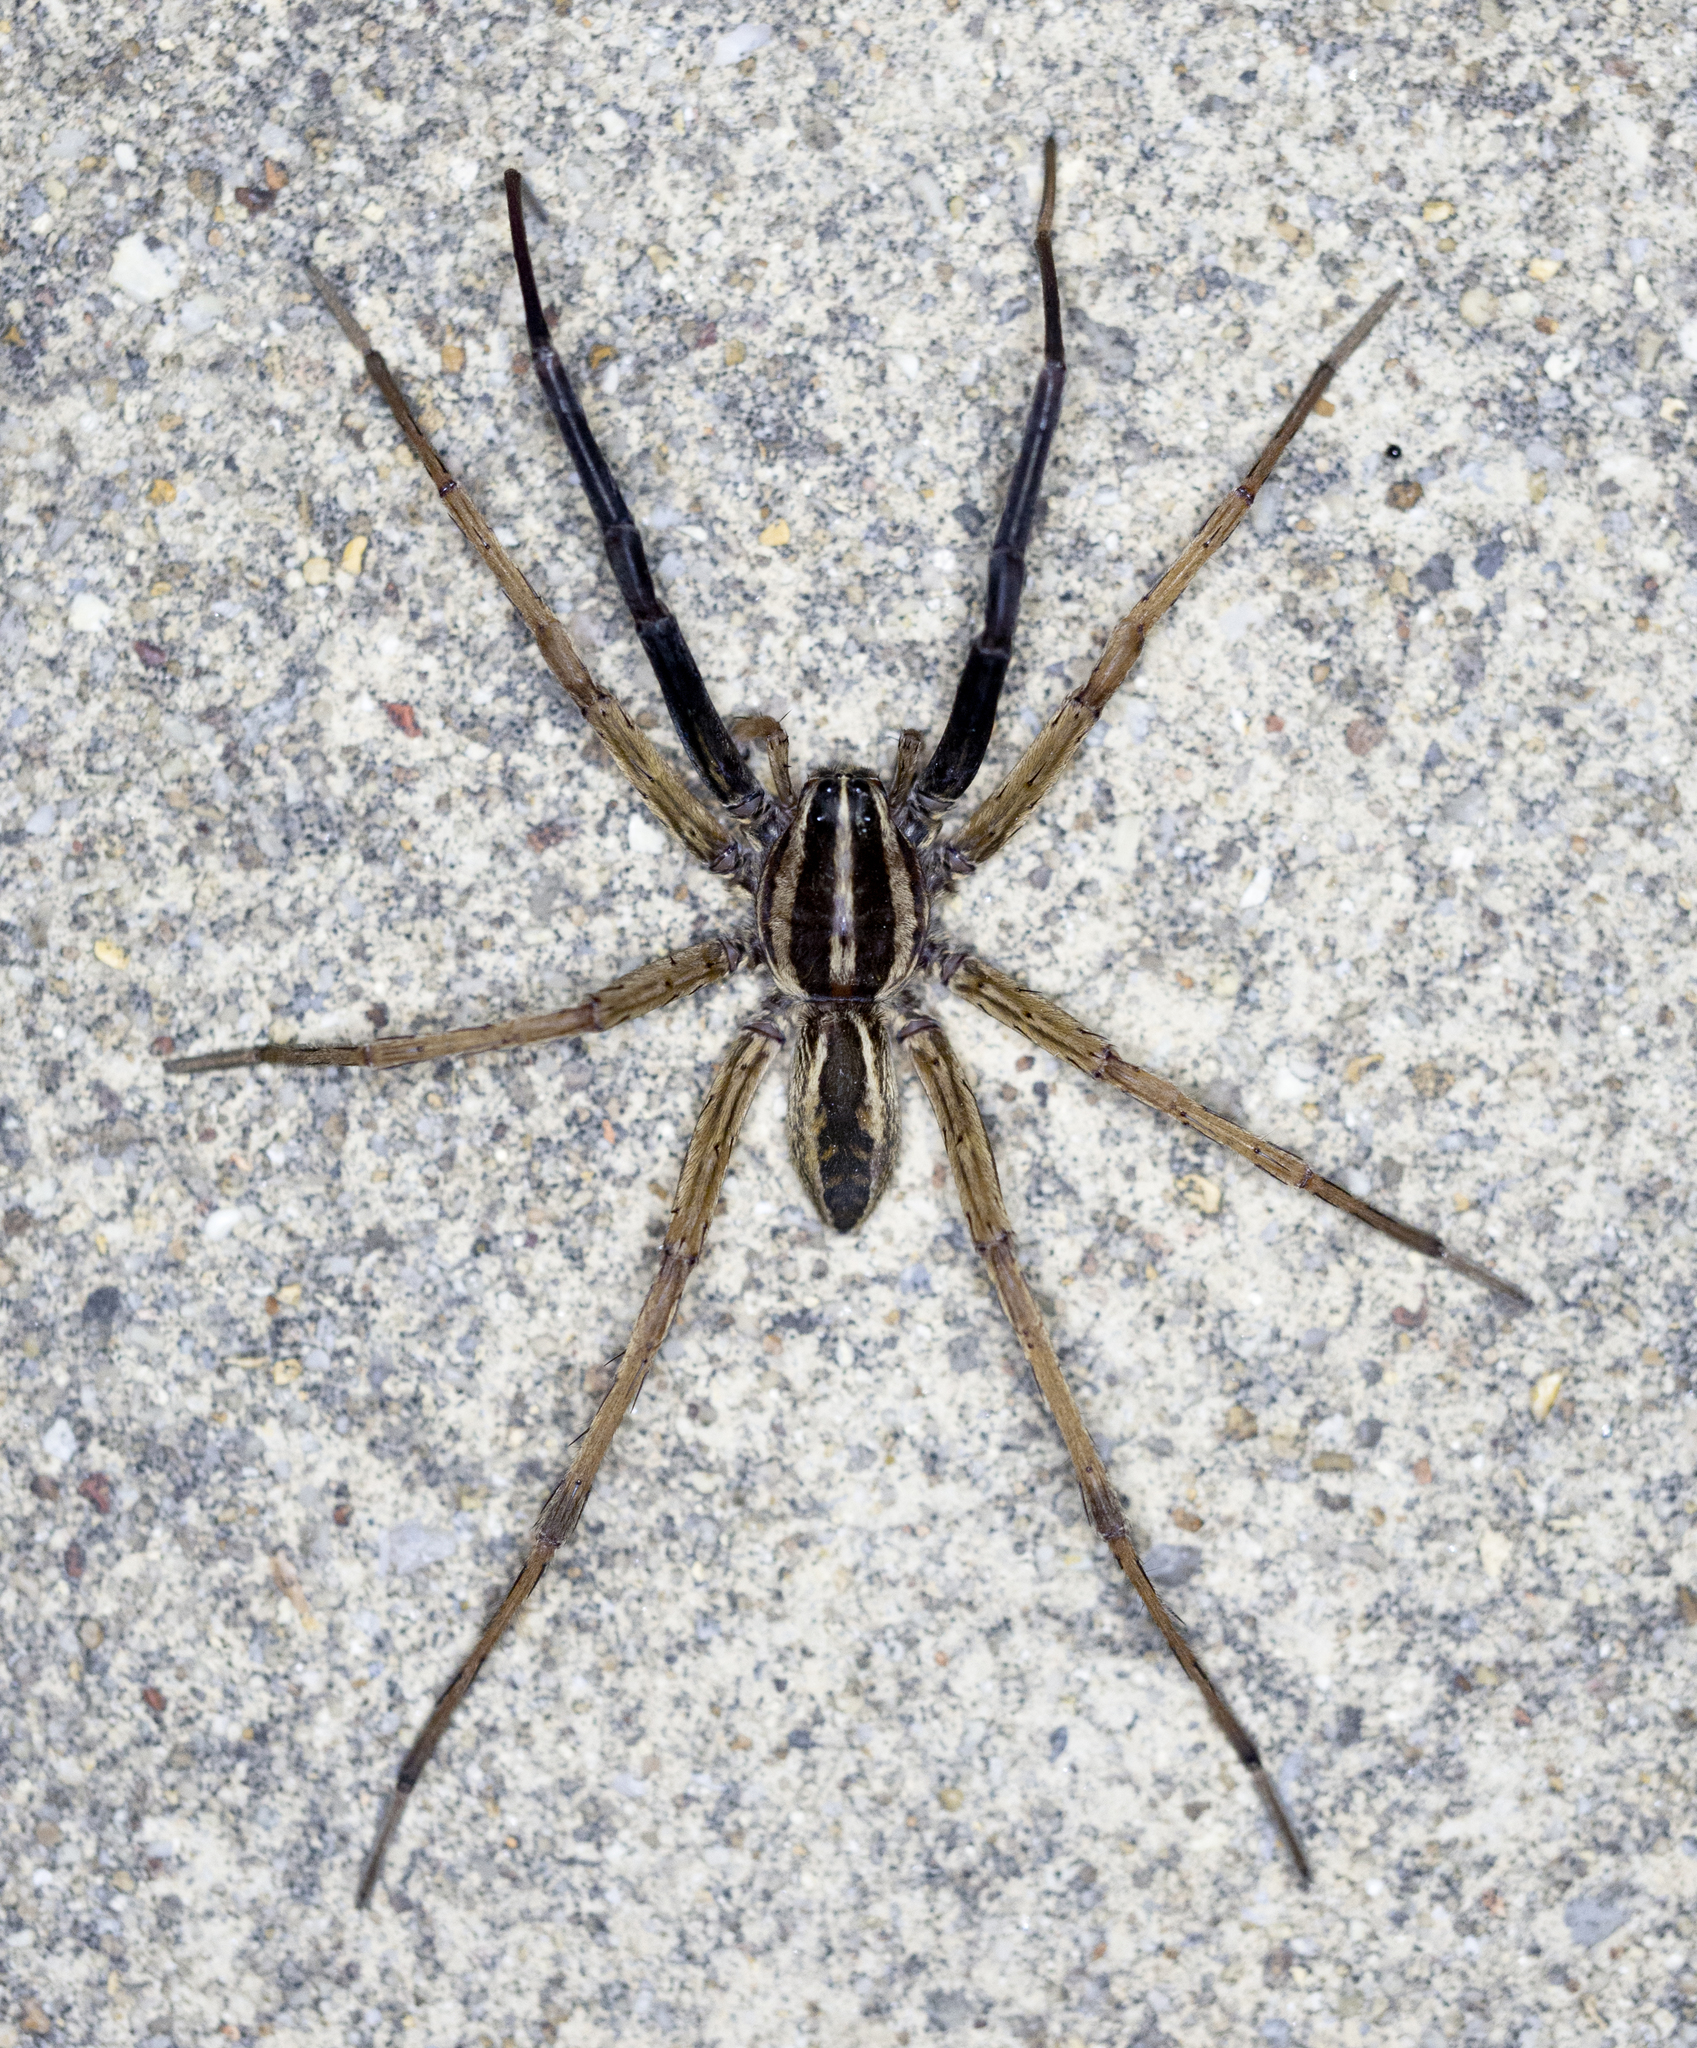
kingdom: Animalia
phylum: Arthropoda
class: Arachnida
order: Araneae
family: Lycosidae
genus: Rabidosa
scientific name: Rabidosa rabida
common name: Rabid wolf spider
